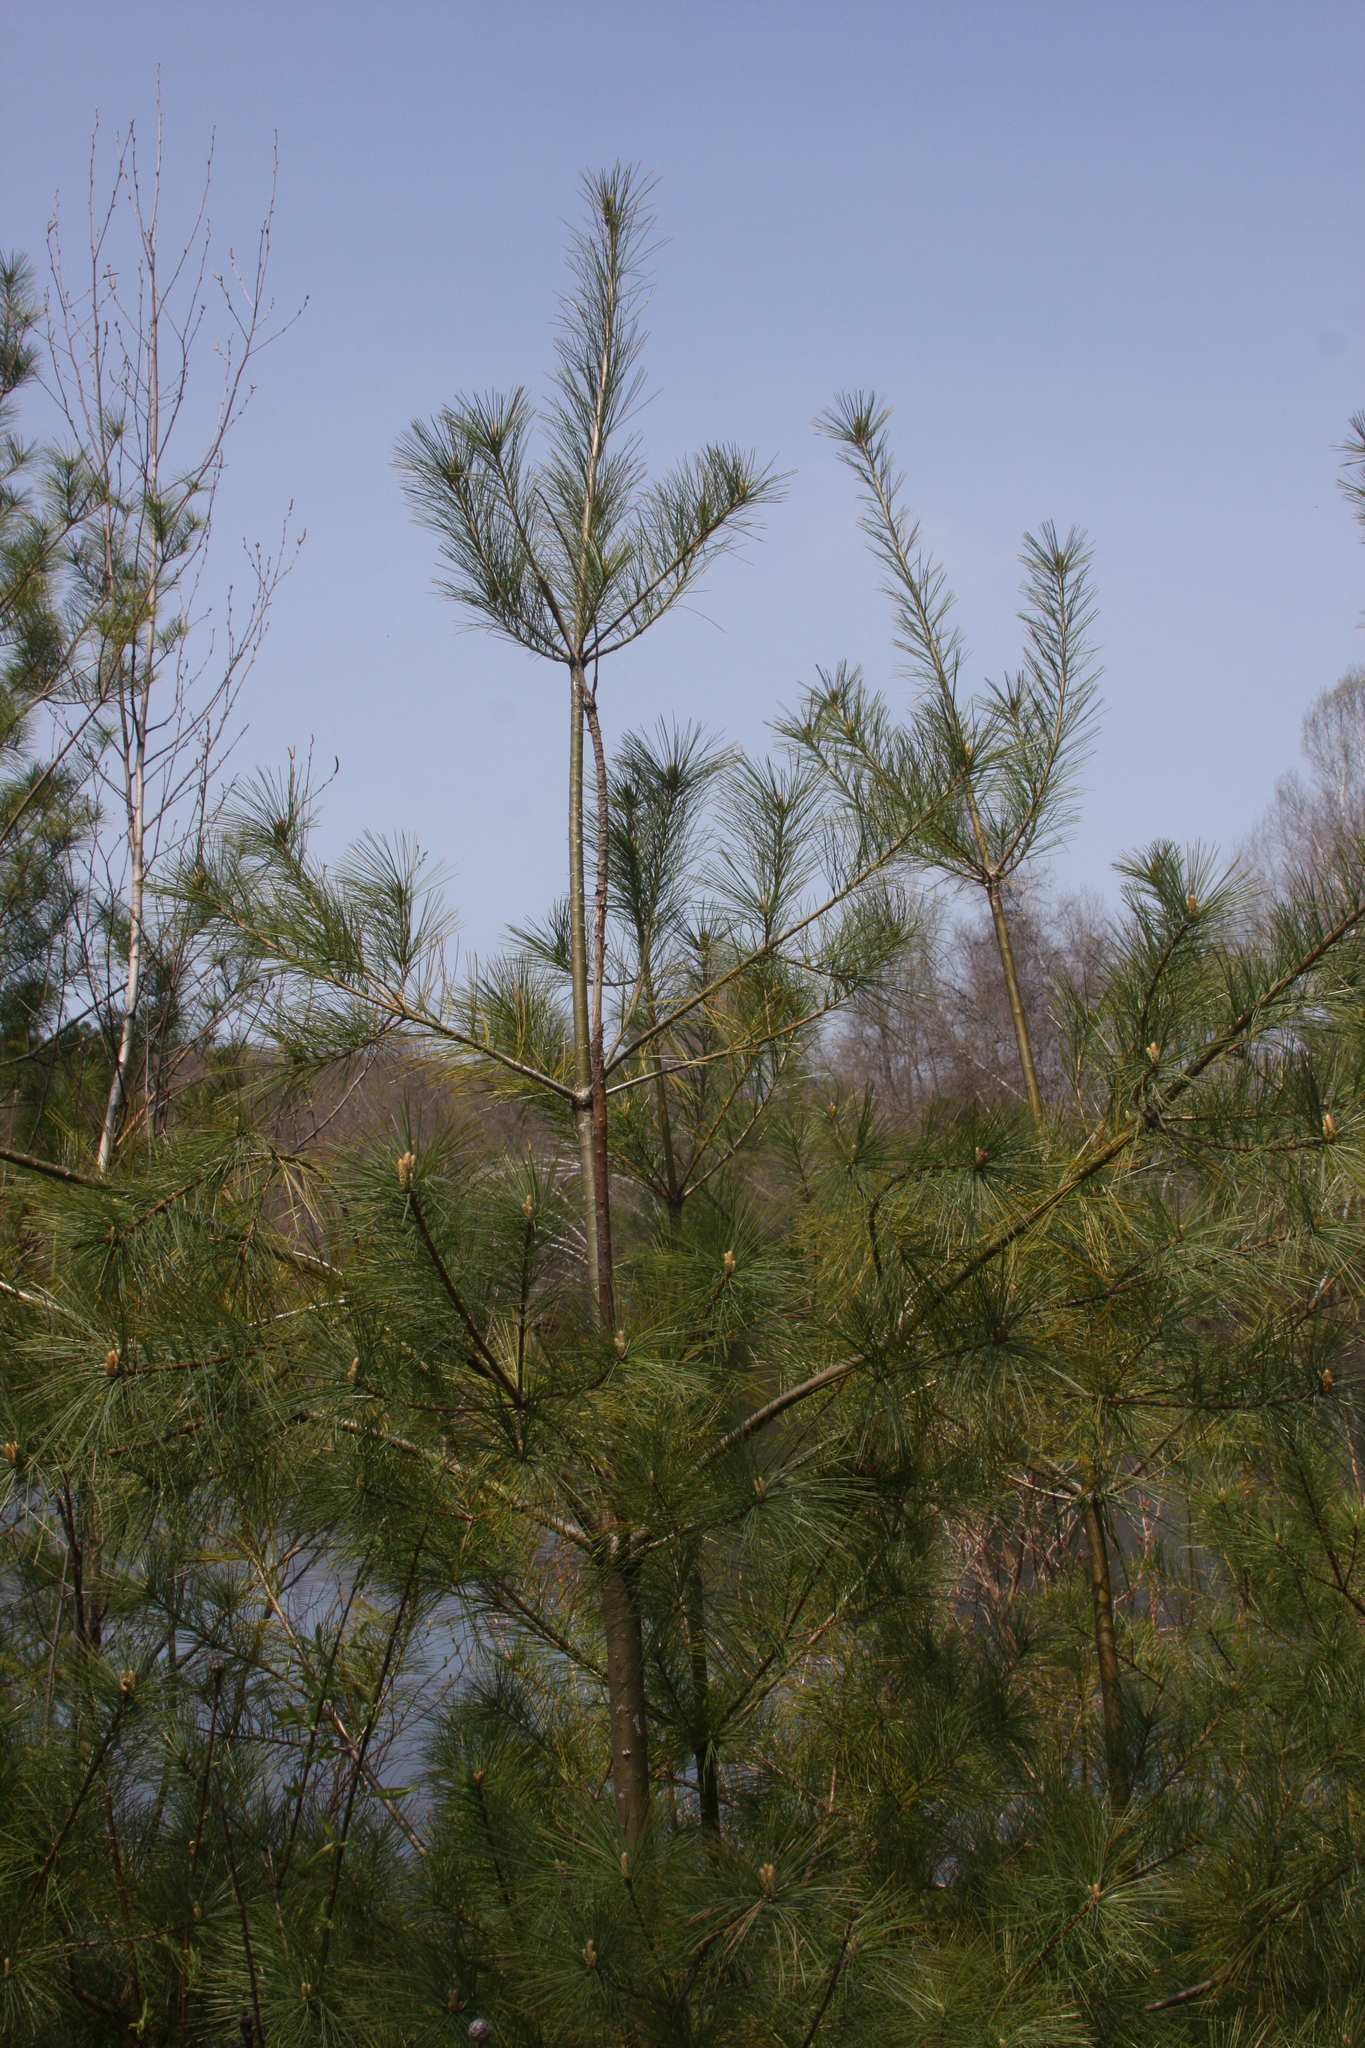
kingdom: Plantae
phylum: Tracheophyta
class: Pinopsida
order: Pinales
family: Pinaceae
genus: Pinus
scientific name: Pinus strobus
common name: Weymouth pine
